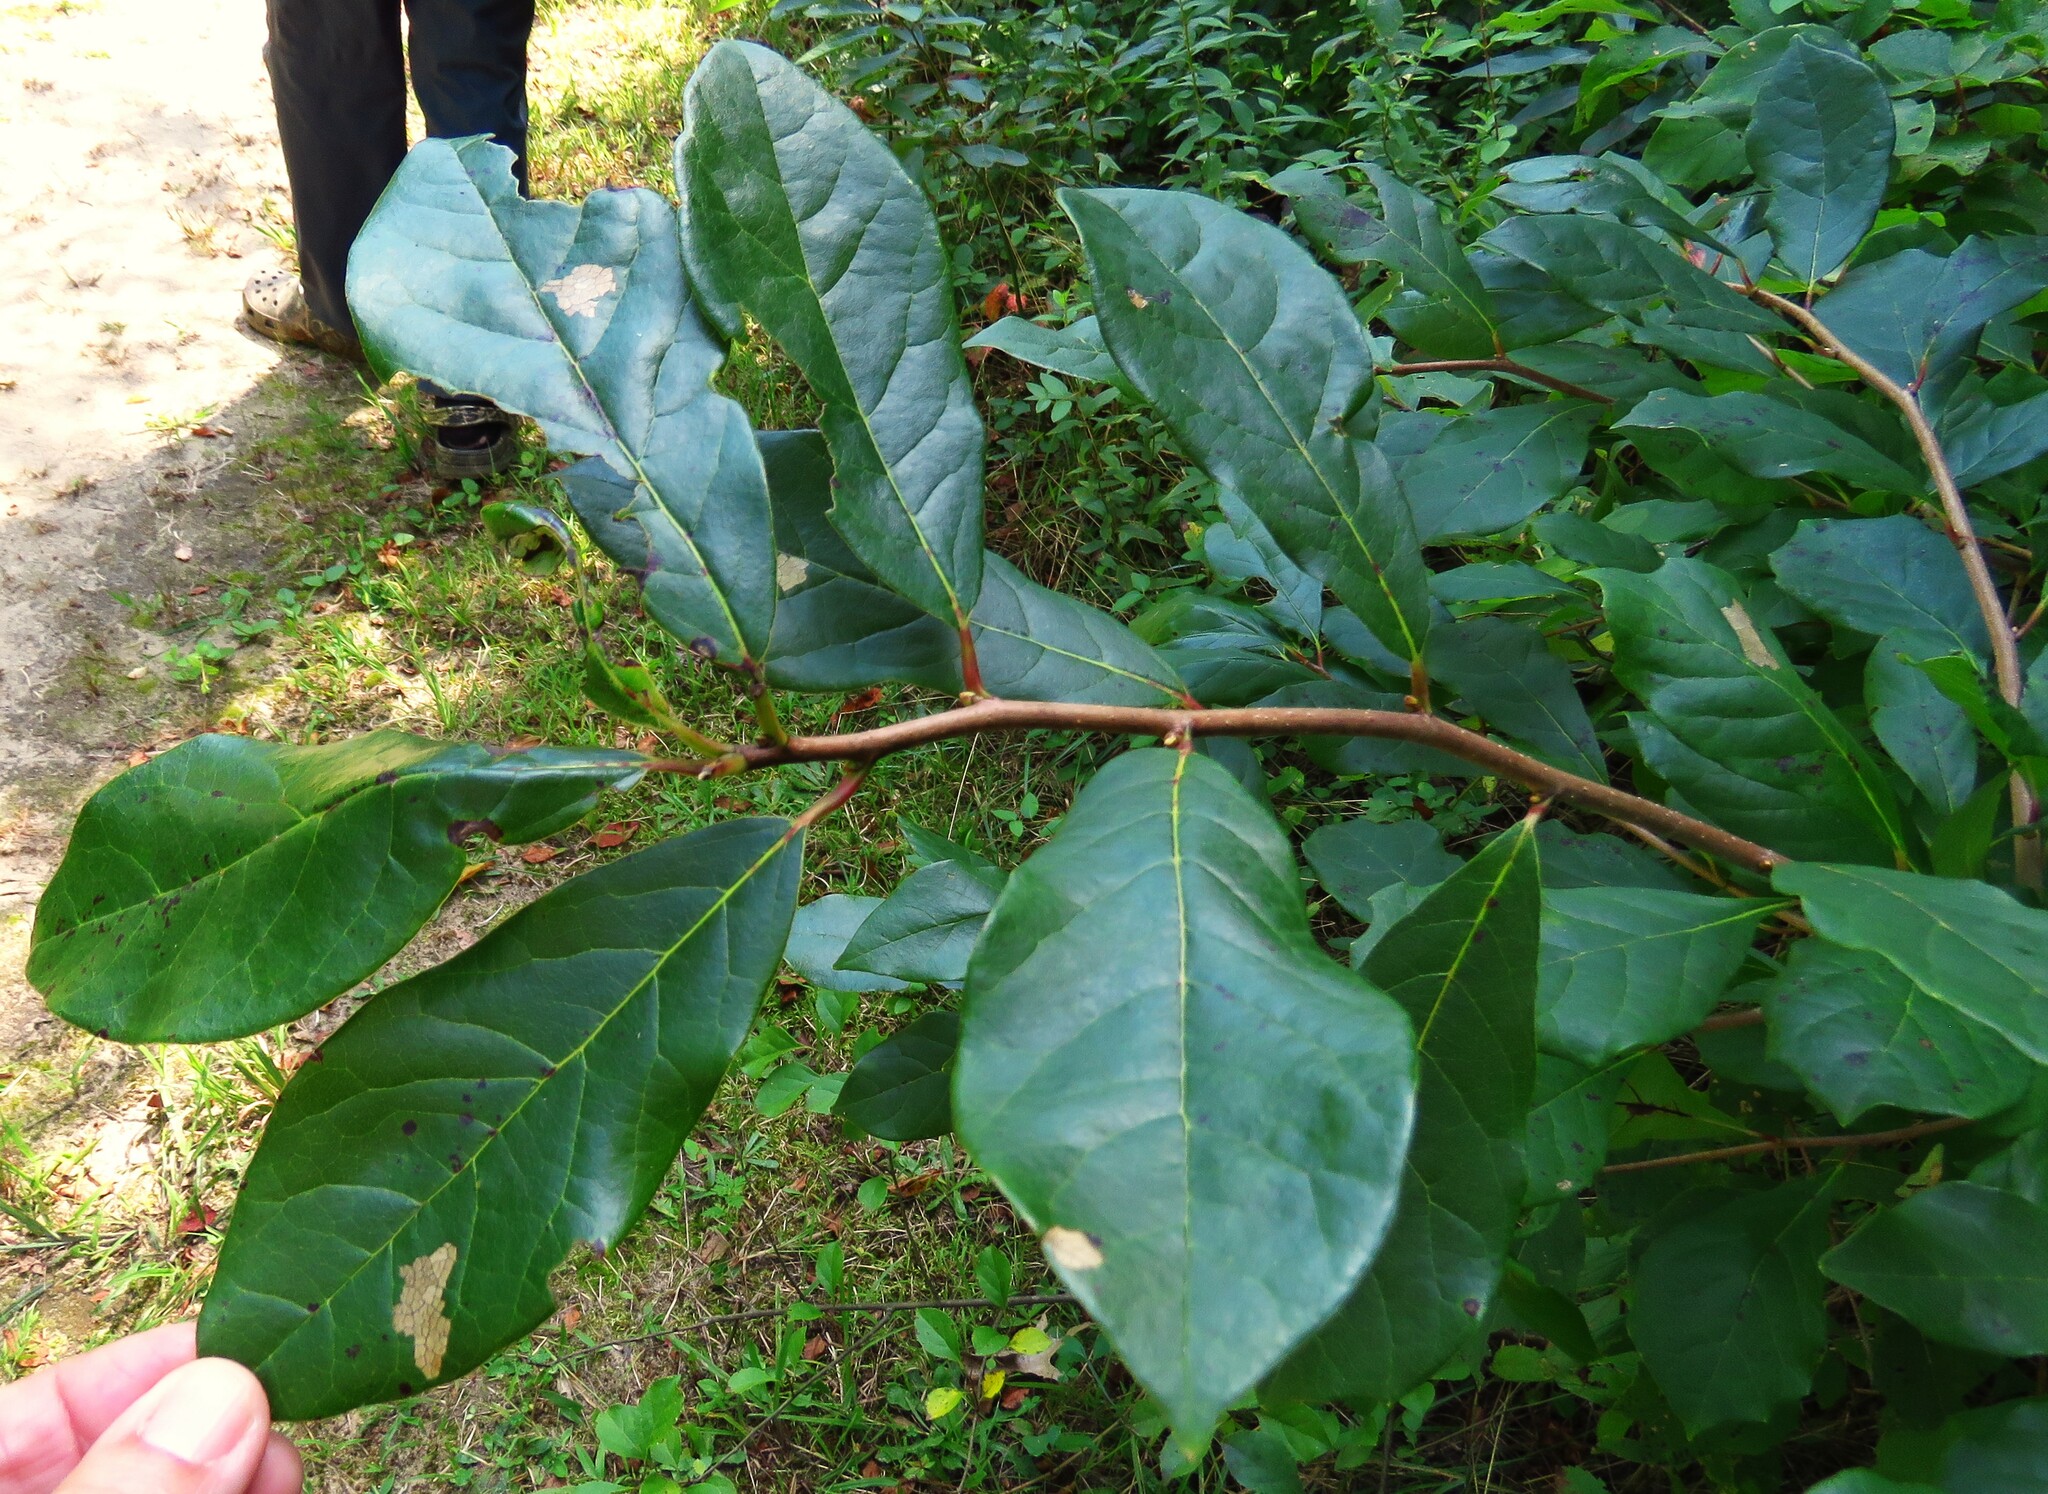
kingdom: Plantae
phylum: Tracheophyta
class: Magnoliopsida
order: Cornales
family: Nyssaceae
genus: Nyssa
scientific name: Nyssa sylvatica
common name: Black tupelo
